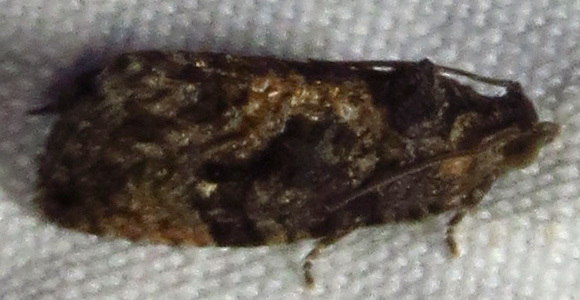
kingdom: Animalia
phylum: Arthropoda
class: Insecta
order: Lepidoptera
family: Tortricidae
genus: Gymnandrosoma
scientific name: Gymnandrosoma punctidiscanum
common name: Dotted ecdytolopha moth
